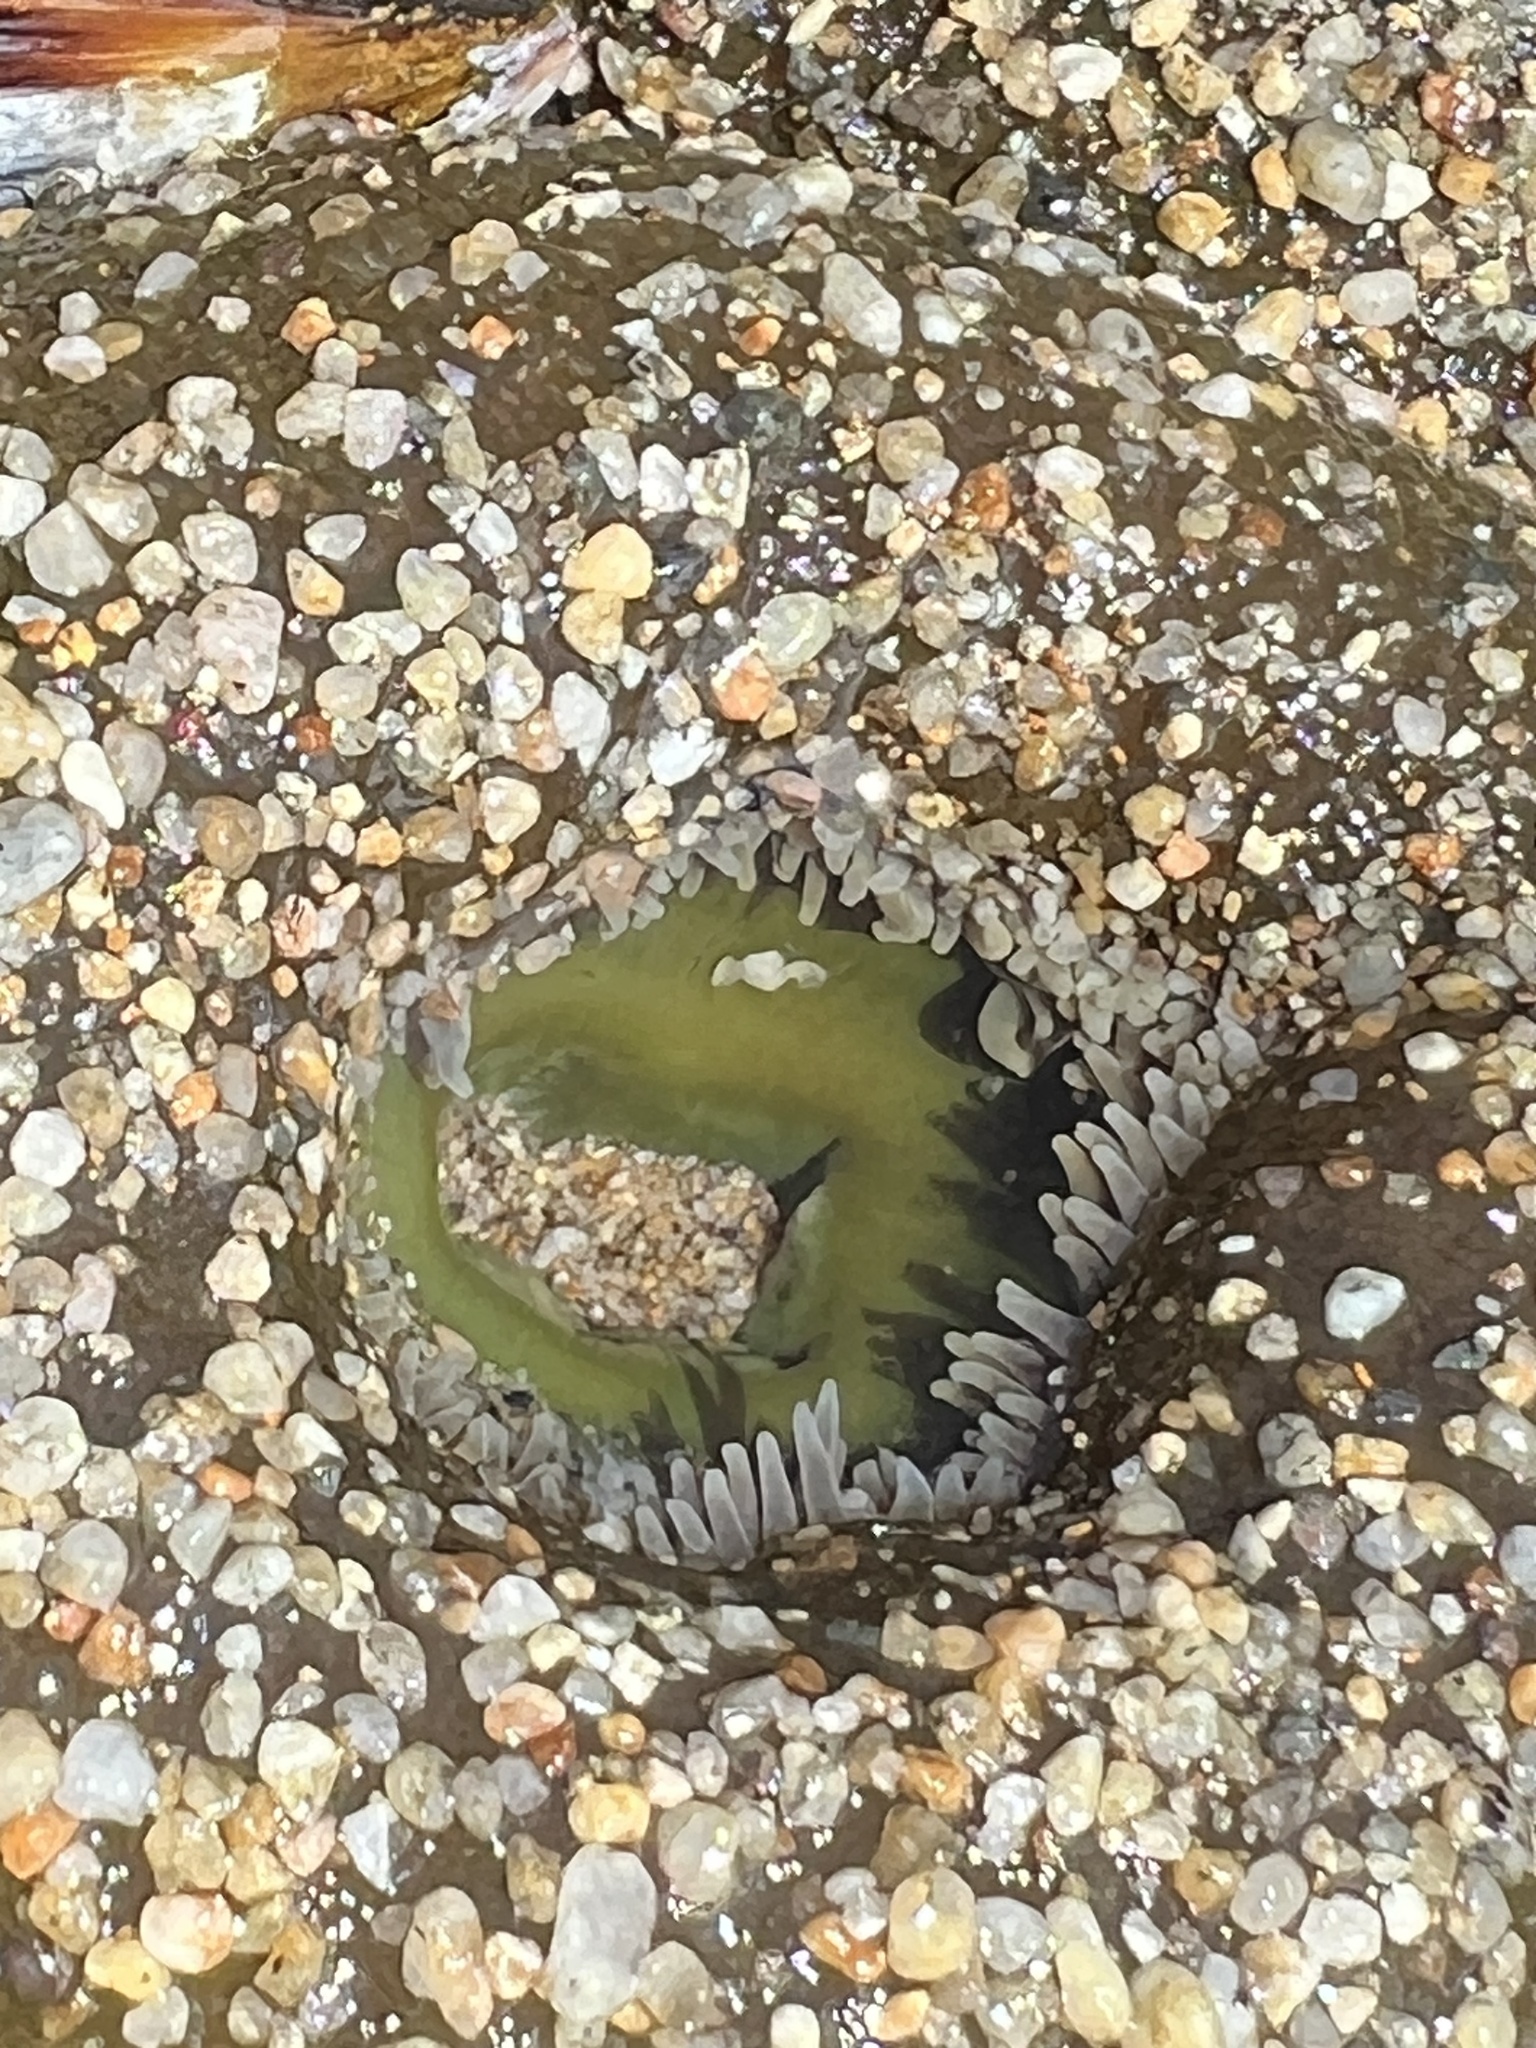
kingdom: Animalia
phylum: Cnidaria
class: Anthozoa
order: Actiniaria
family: Actiniidae
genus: Anthopleura
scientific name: Anthopleura xanthogrammica
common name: Giant green anemone
